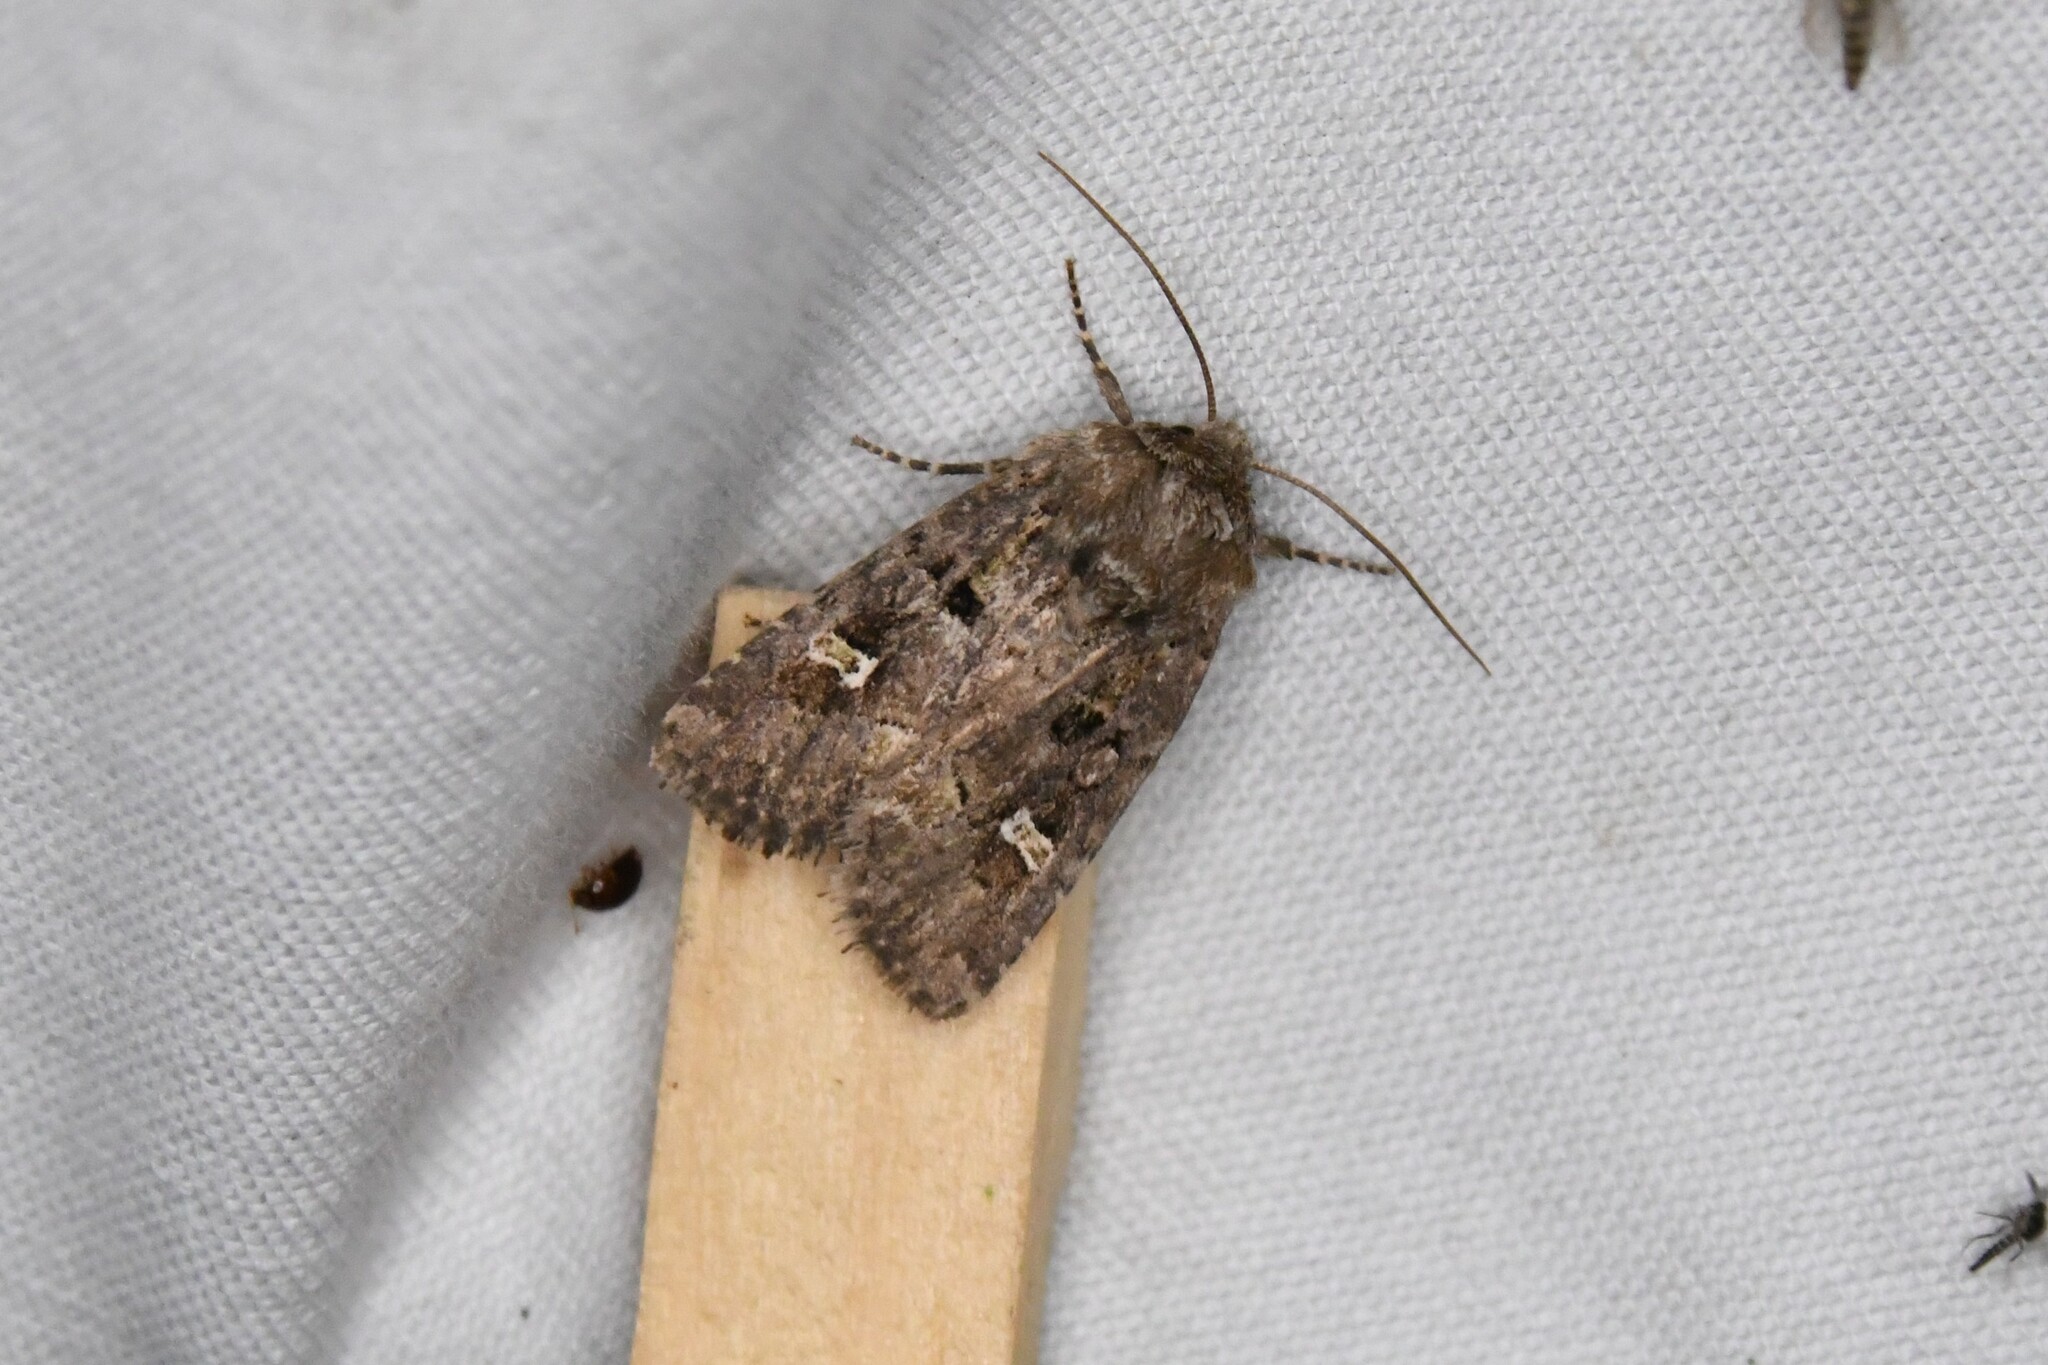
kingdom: Animalia
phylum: Arthropoda
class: Insecta
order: Lepidoptera
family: Noctuidae
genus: Lacinipolia
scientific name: Lacinipolia renigera
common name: Kidney-spotted minor
